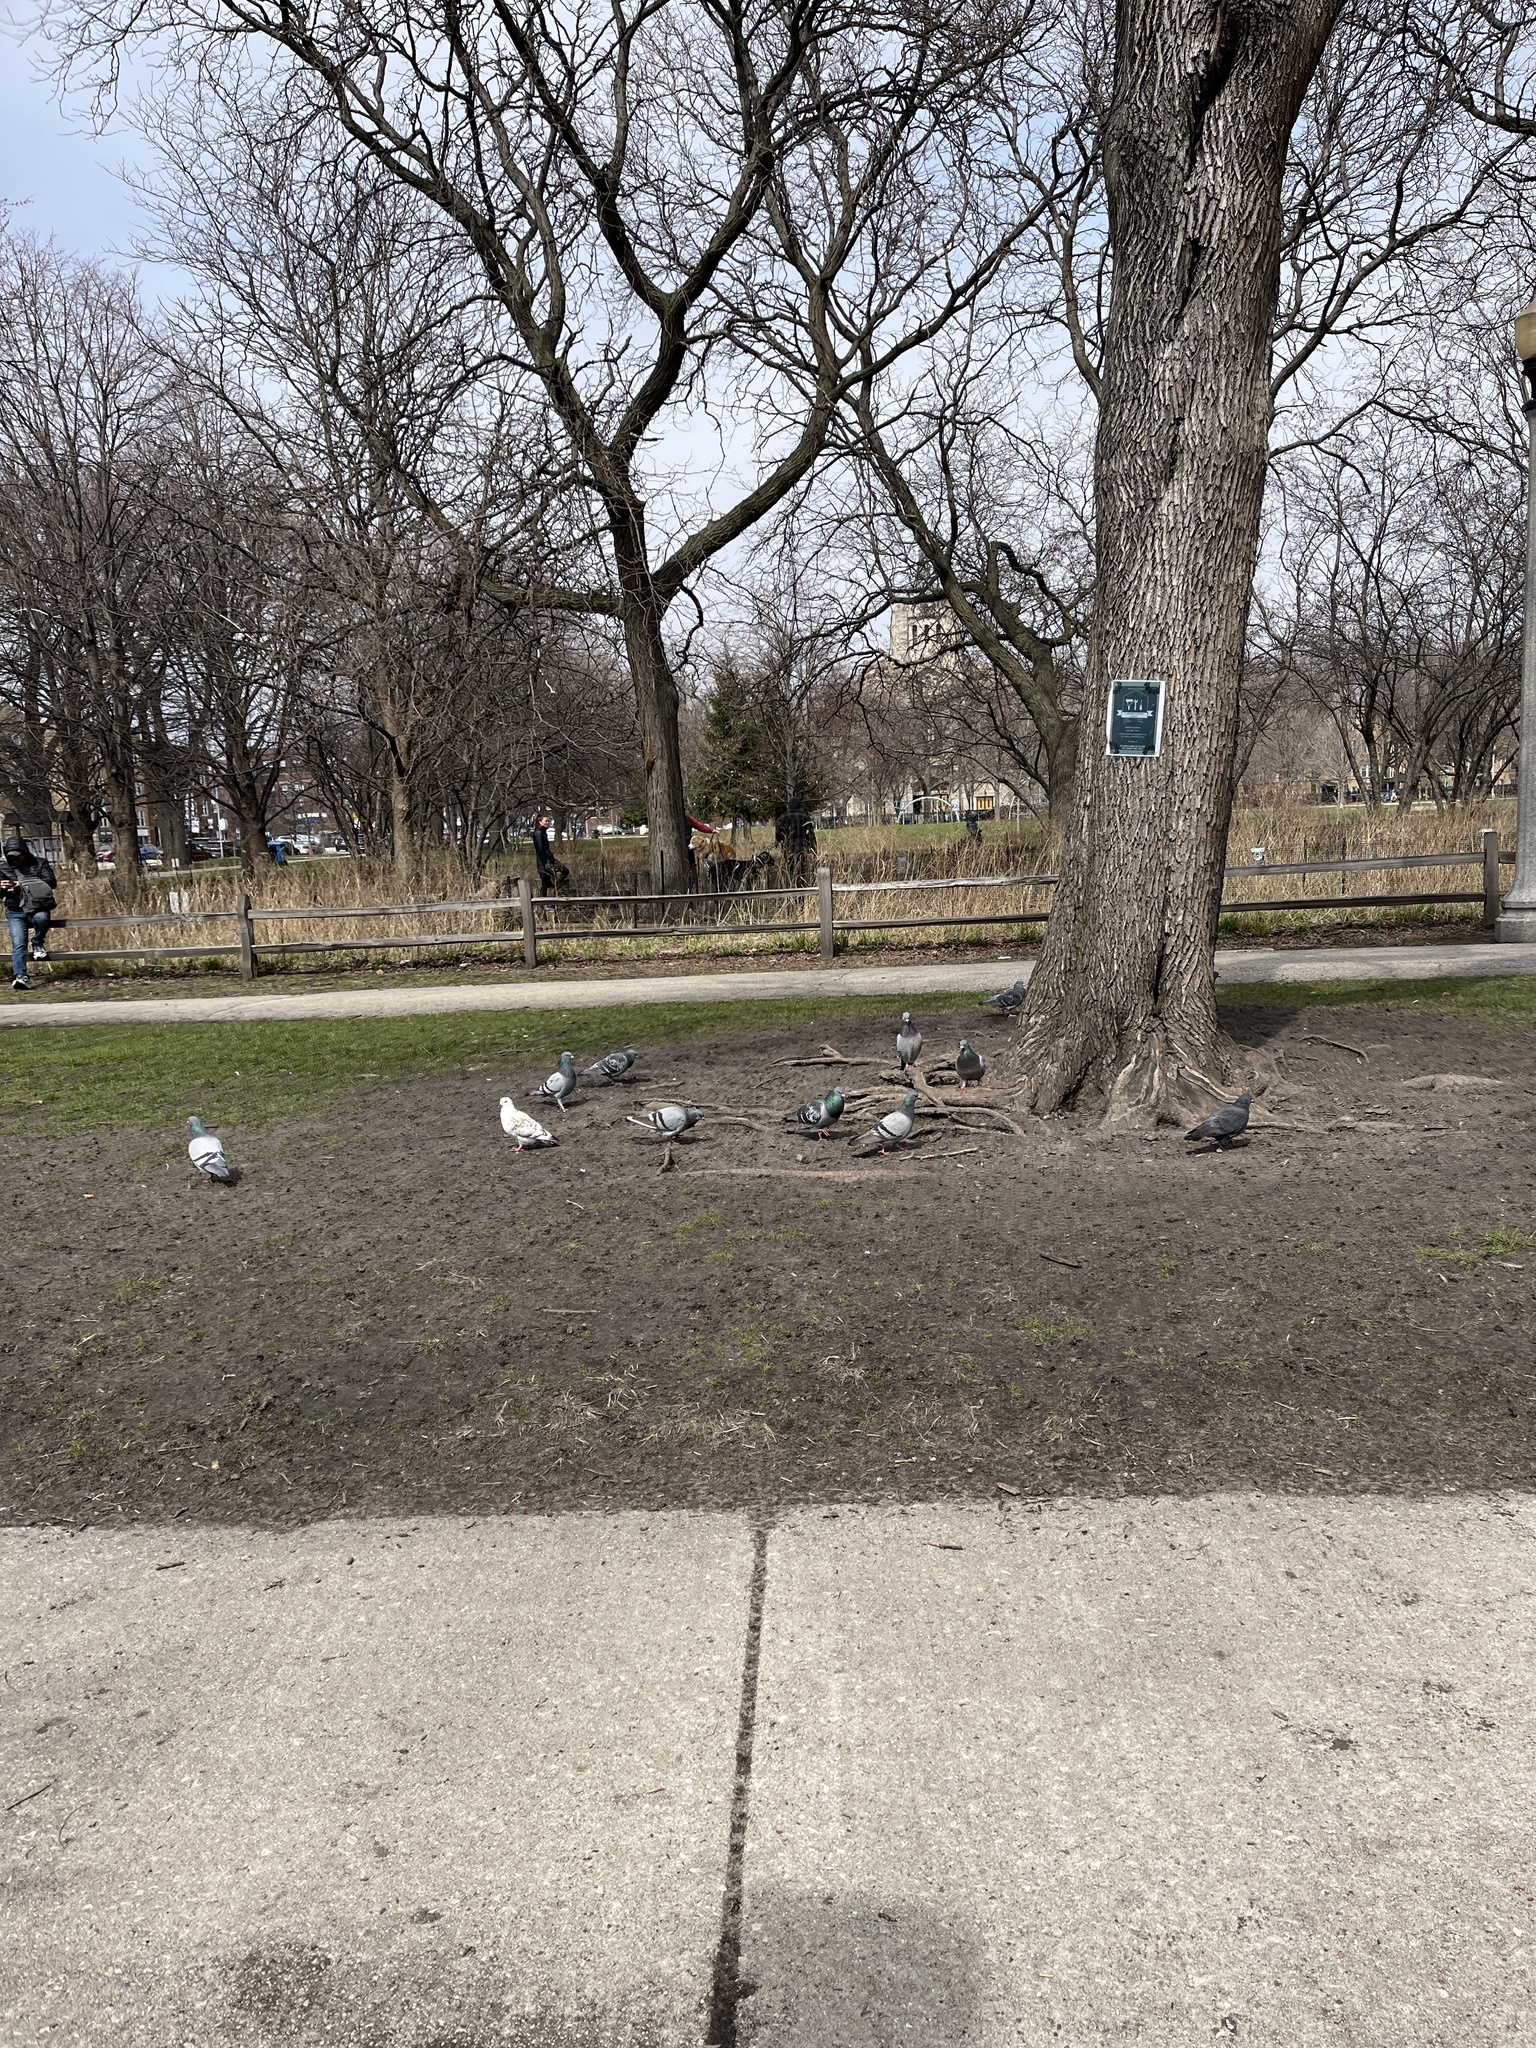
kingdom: Animalia
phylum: Chordata
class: Aves
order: Columbiformes
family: Columbidae
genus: Columba
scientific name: Columba livia
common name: Rock pigeon
